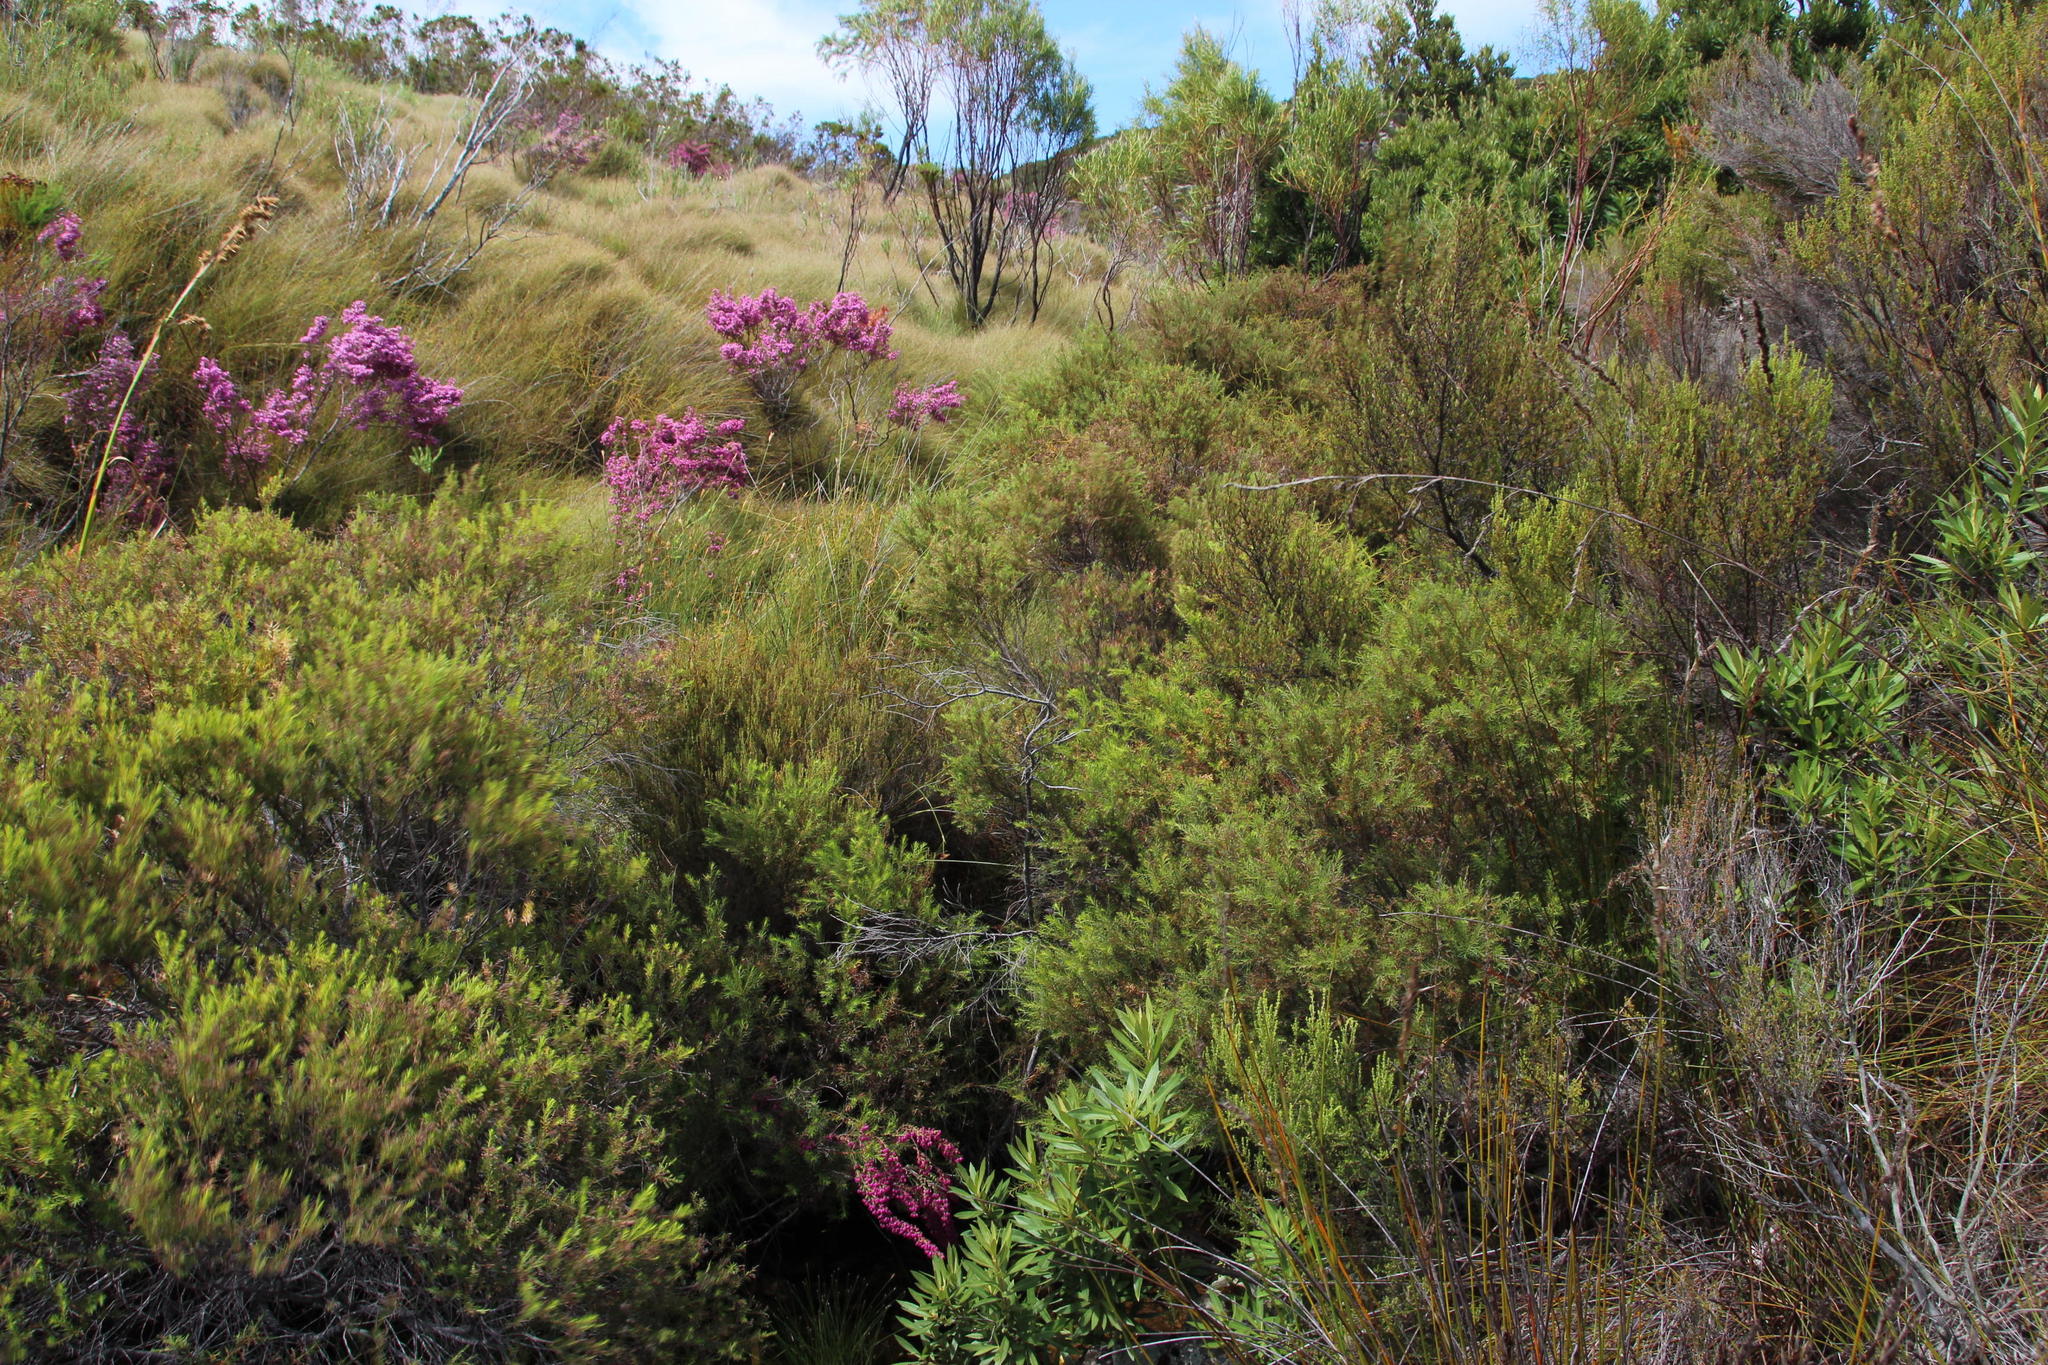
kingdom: Plantae
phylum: Tracheophyta
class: Magnoliopsida
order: Bruniales
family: Bruniaceae
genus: Brunia
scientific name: Brunia africana
